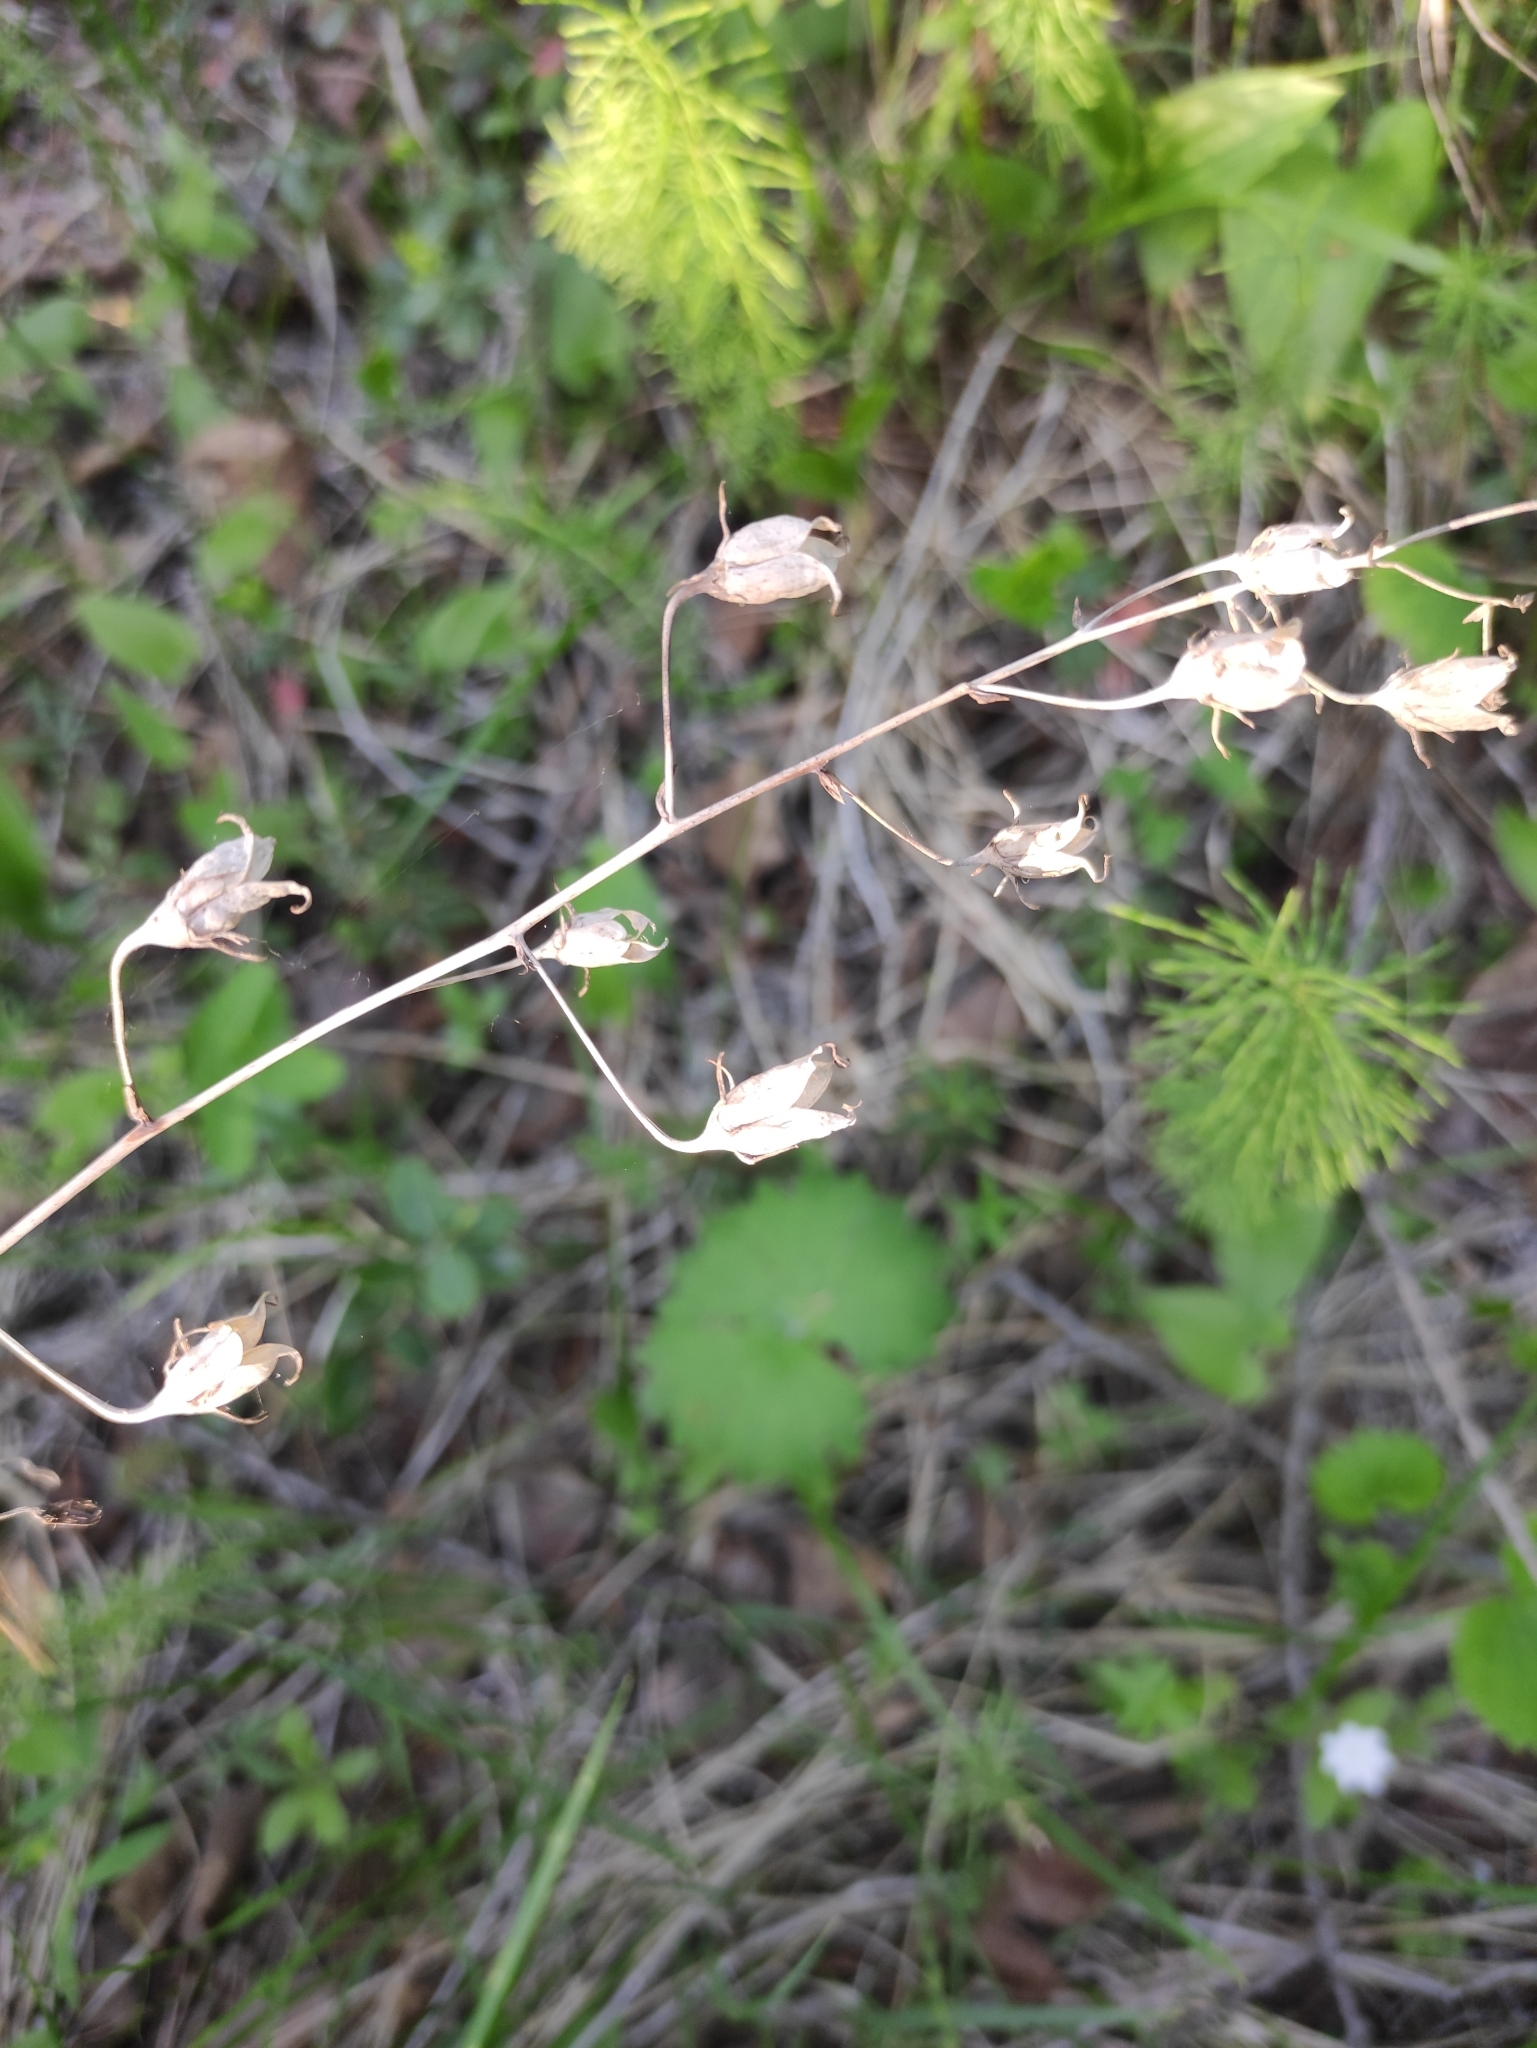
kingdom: Plantae
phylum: Tracheophyta
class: Liliopsida
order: Liliales
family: Melanthiaceae
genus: Anticlea
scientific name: Anticlea sibirica
